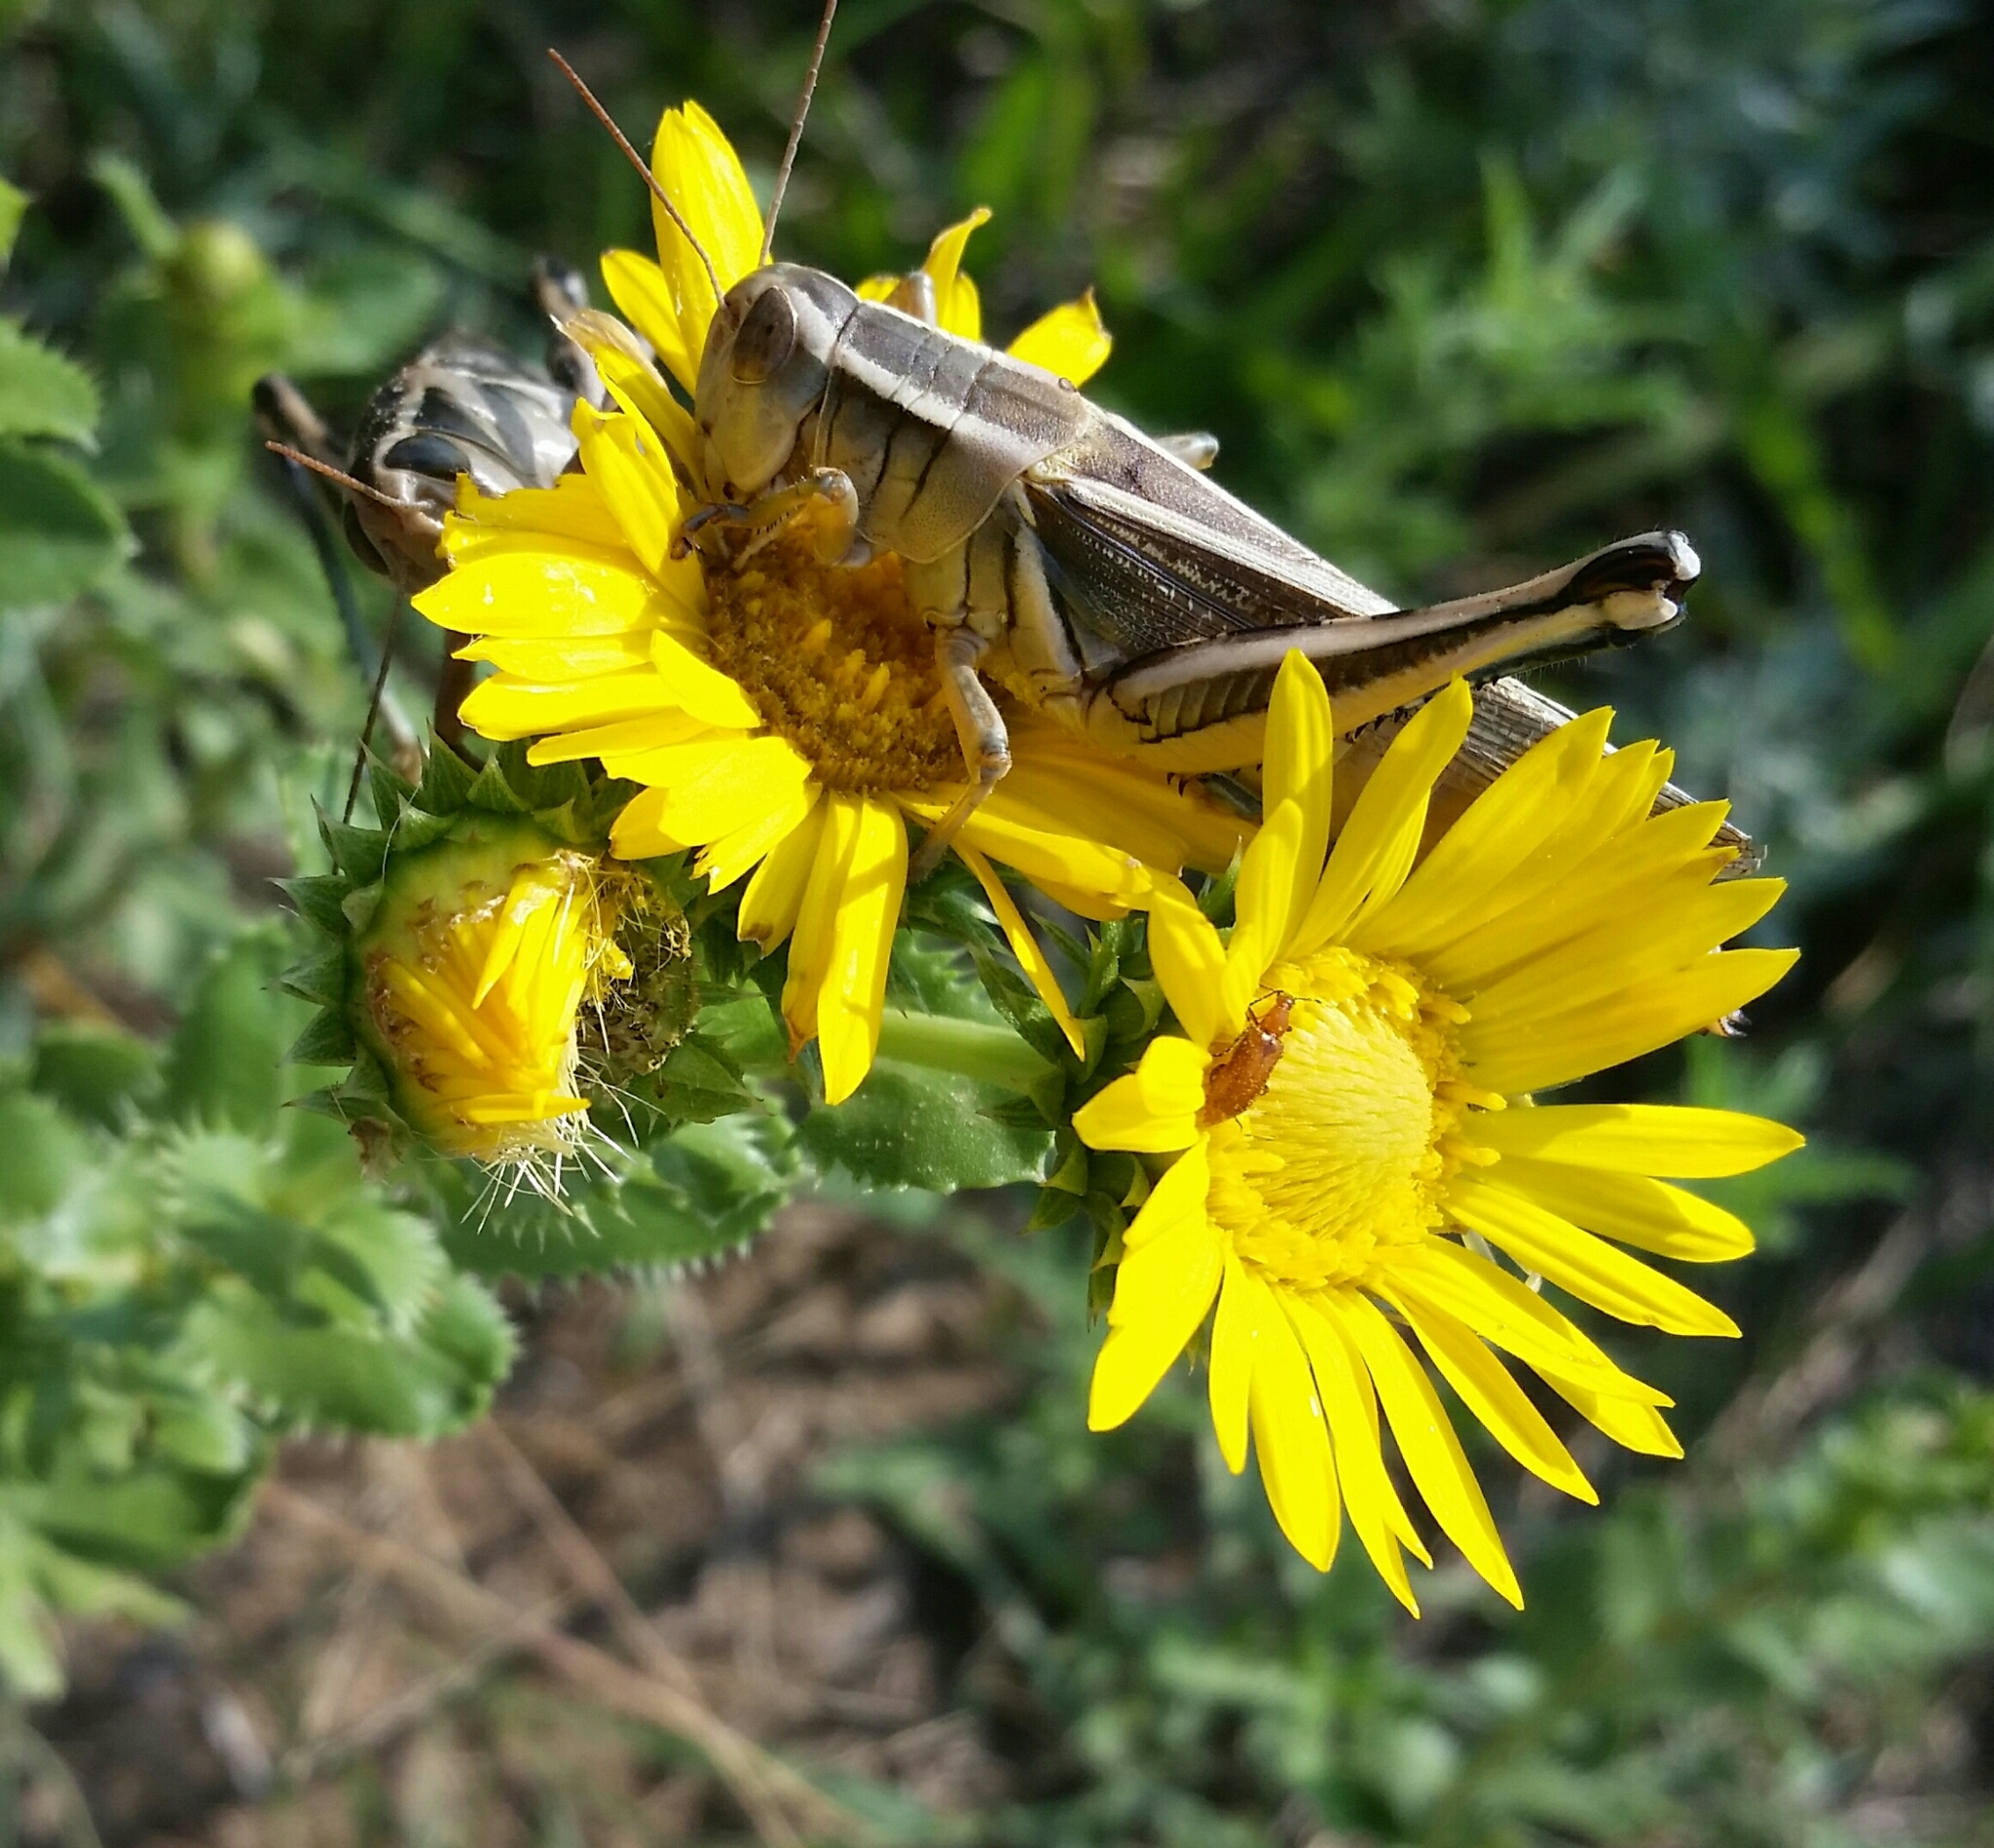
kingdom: Plantae
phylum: Tracheophyta
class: Magnoliopsida
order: Asterales
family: Asteraceae
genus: Grindelia
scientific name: Grindelia ciliata
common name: Goldenweed
